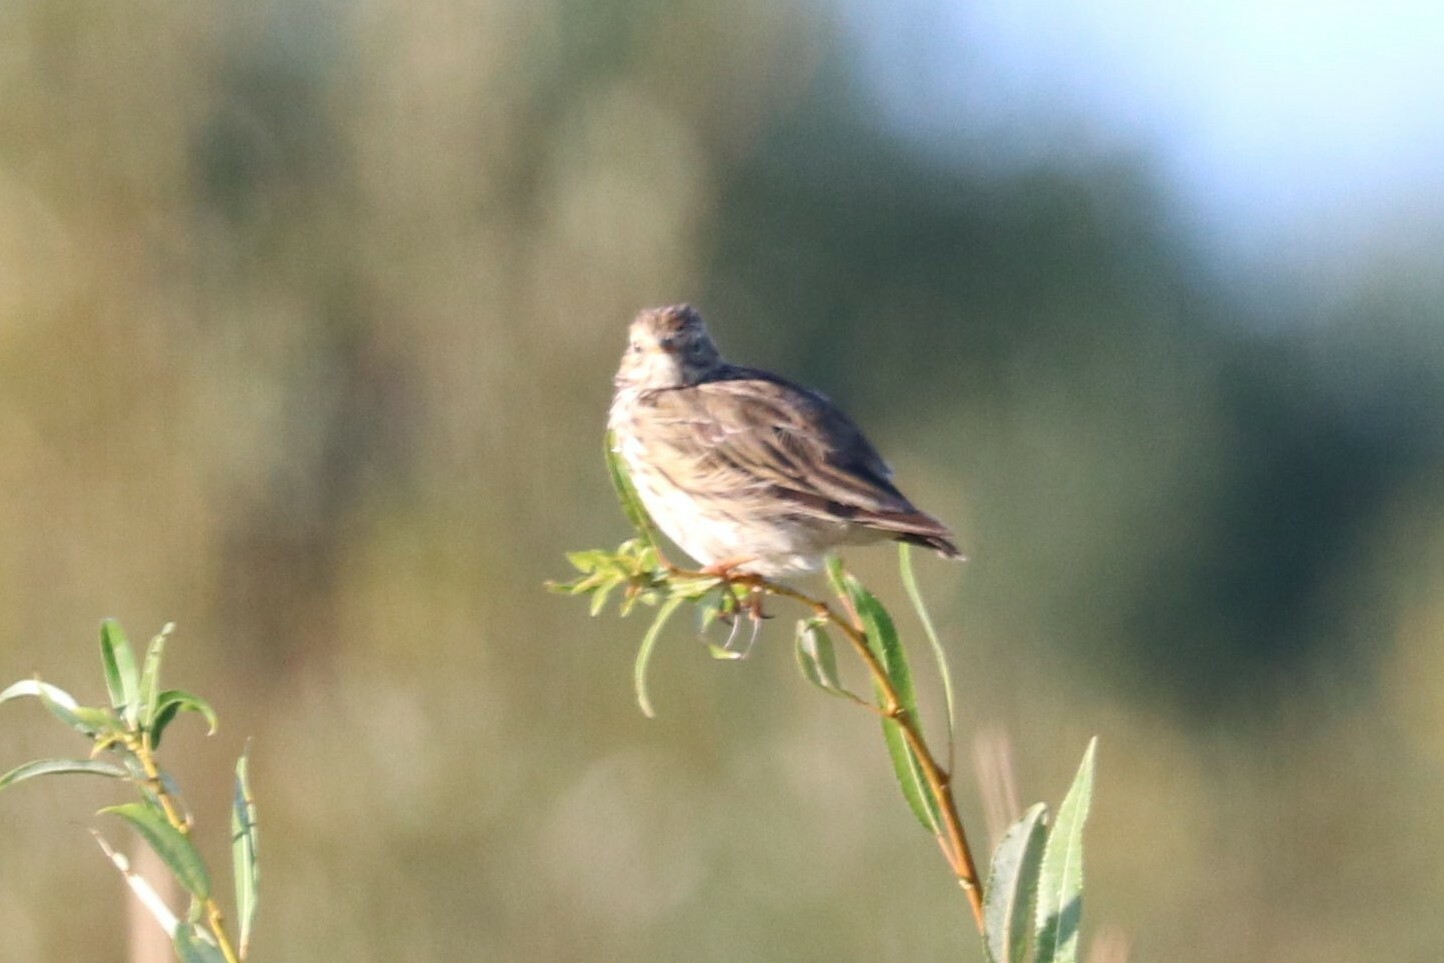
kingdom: Animalia
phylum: Chordata
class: Aves
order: Passeriformes
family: Motacillidae
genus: Anthus
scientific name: Anthus pratensis
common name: Meadow pipit
